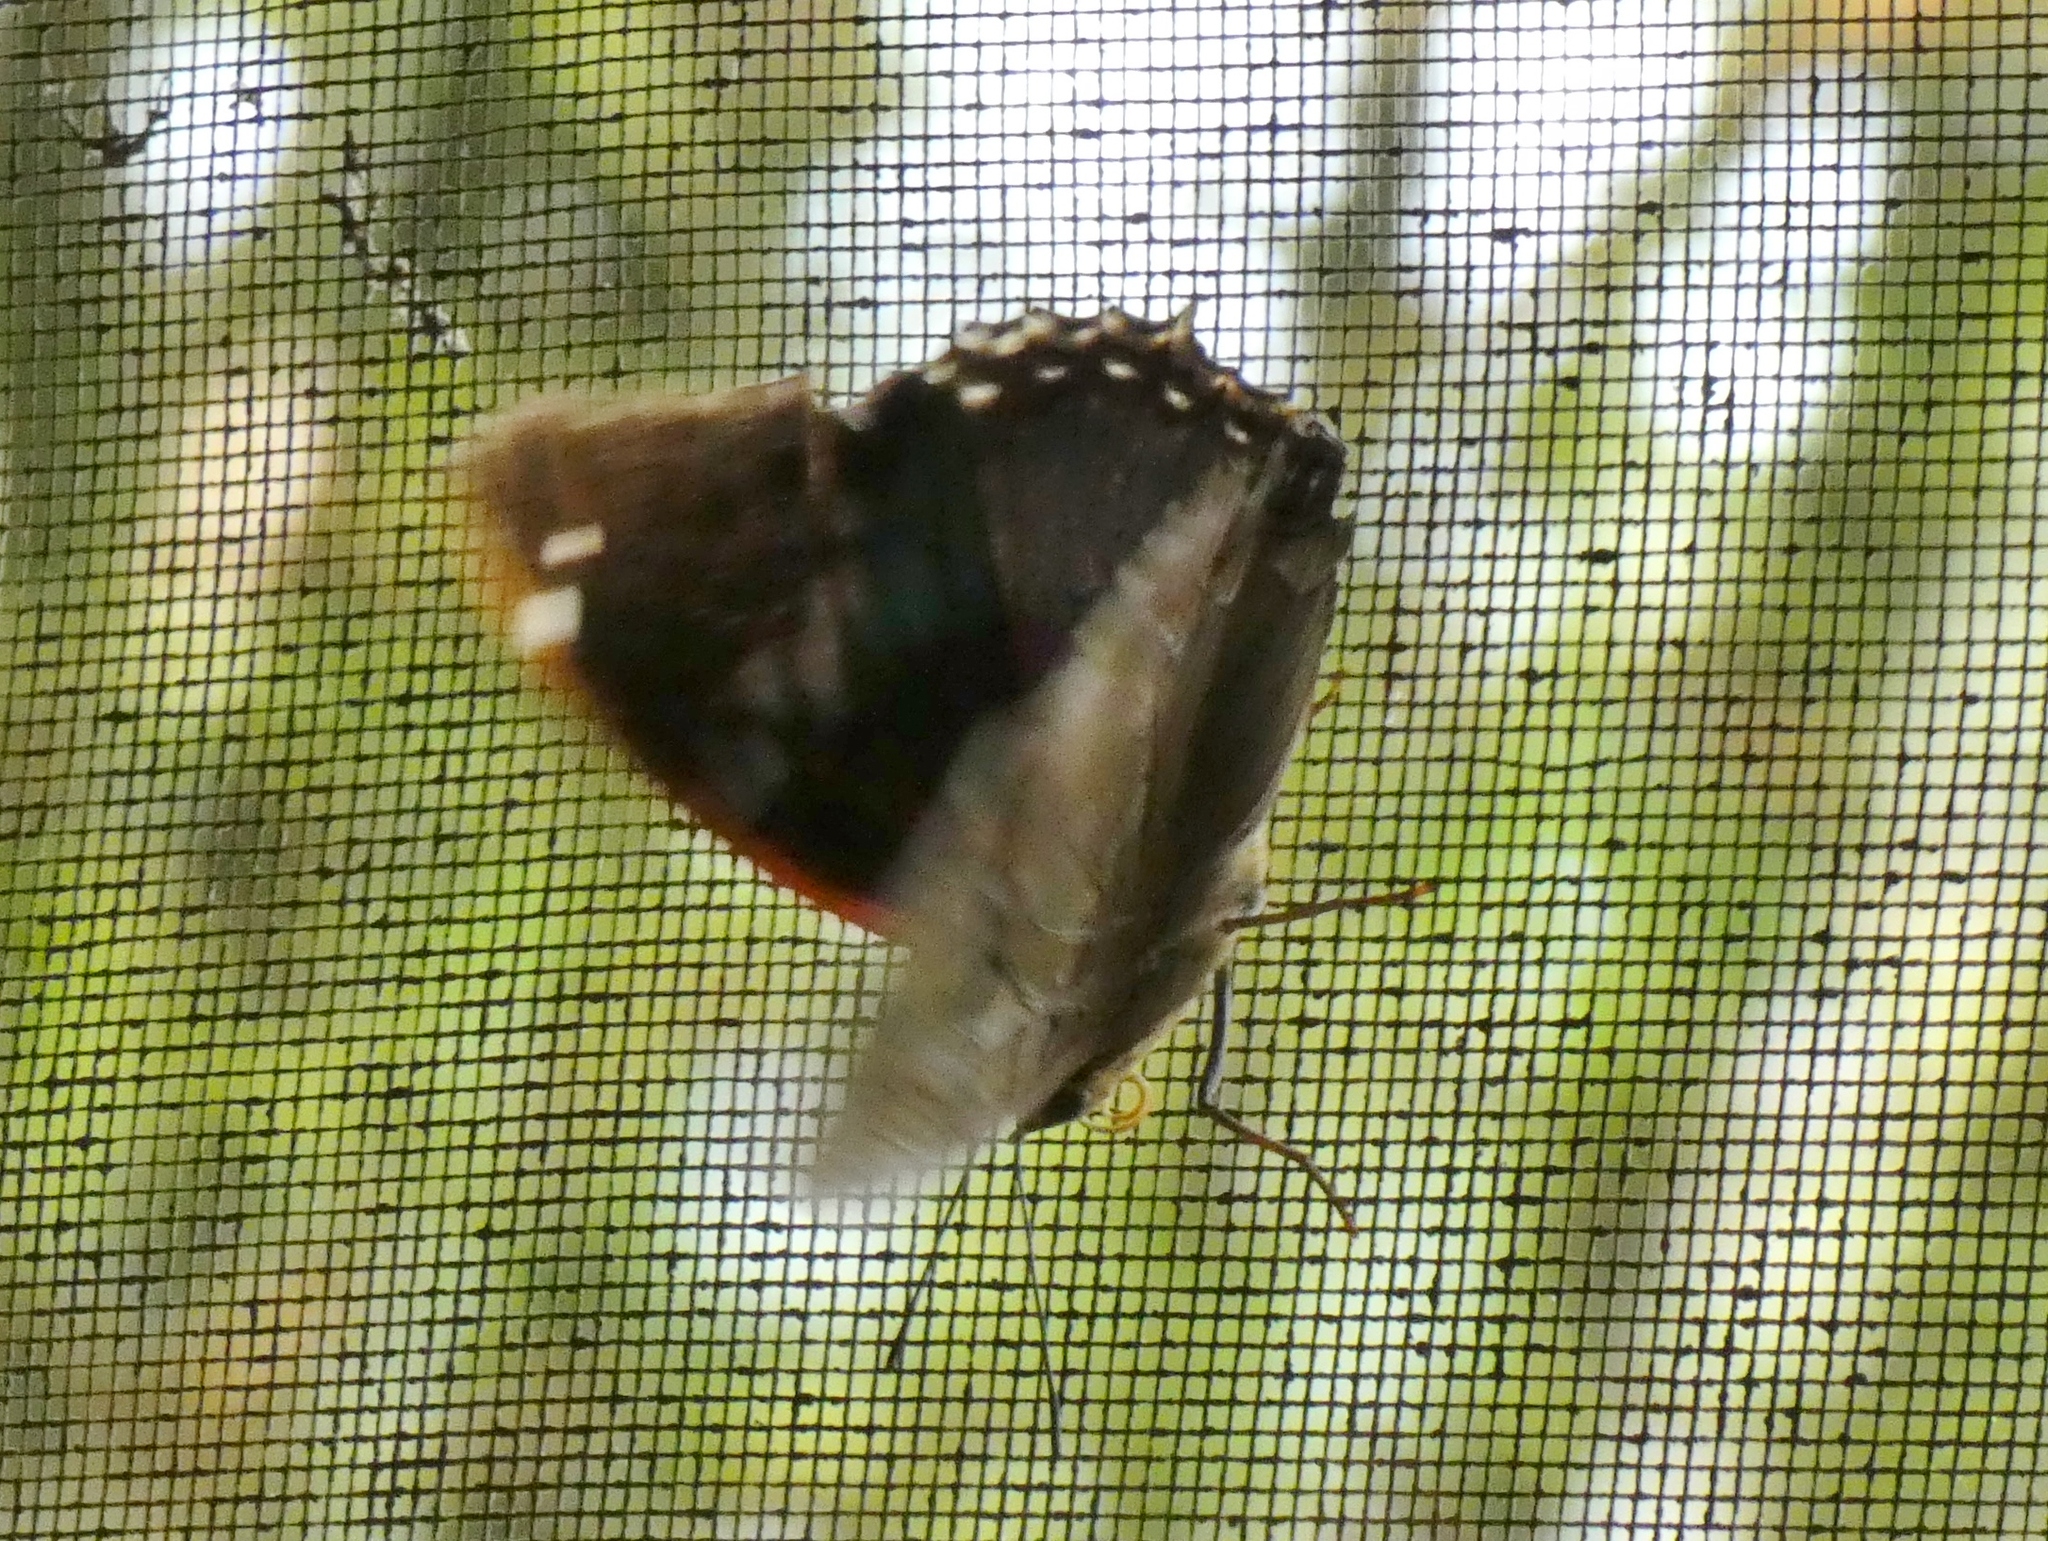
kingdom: Animalia
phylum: Arthropoda
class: Insecta
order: Lepidoptera
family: Nymphalidae
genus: Charaxes
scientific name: Charaxes smaragdalis
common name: Western blue charaxes
